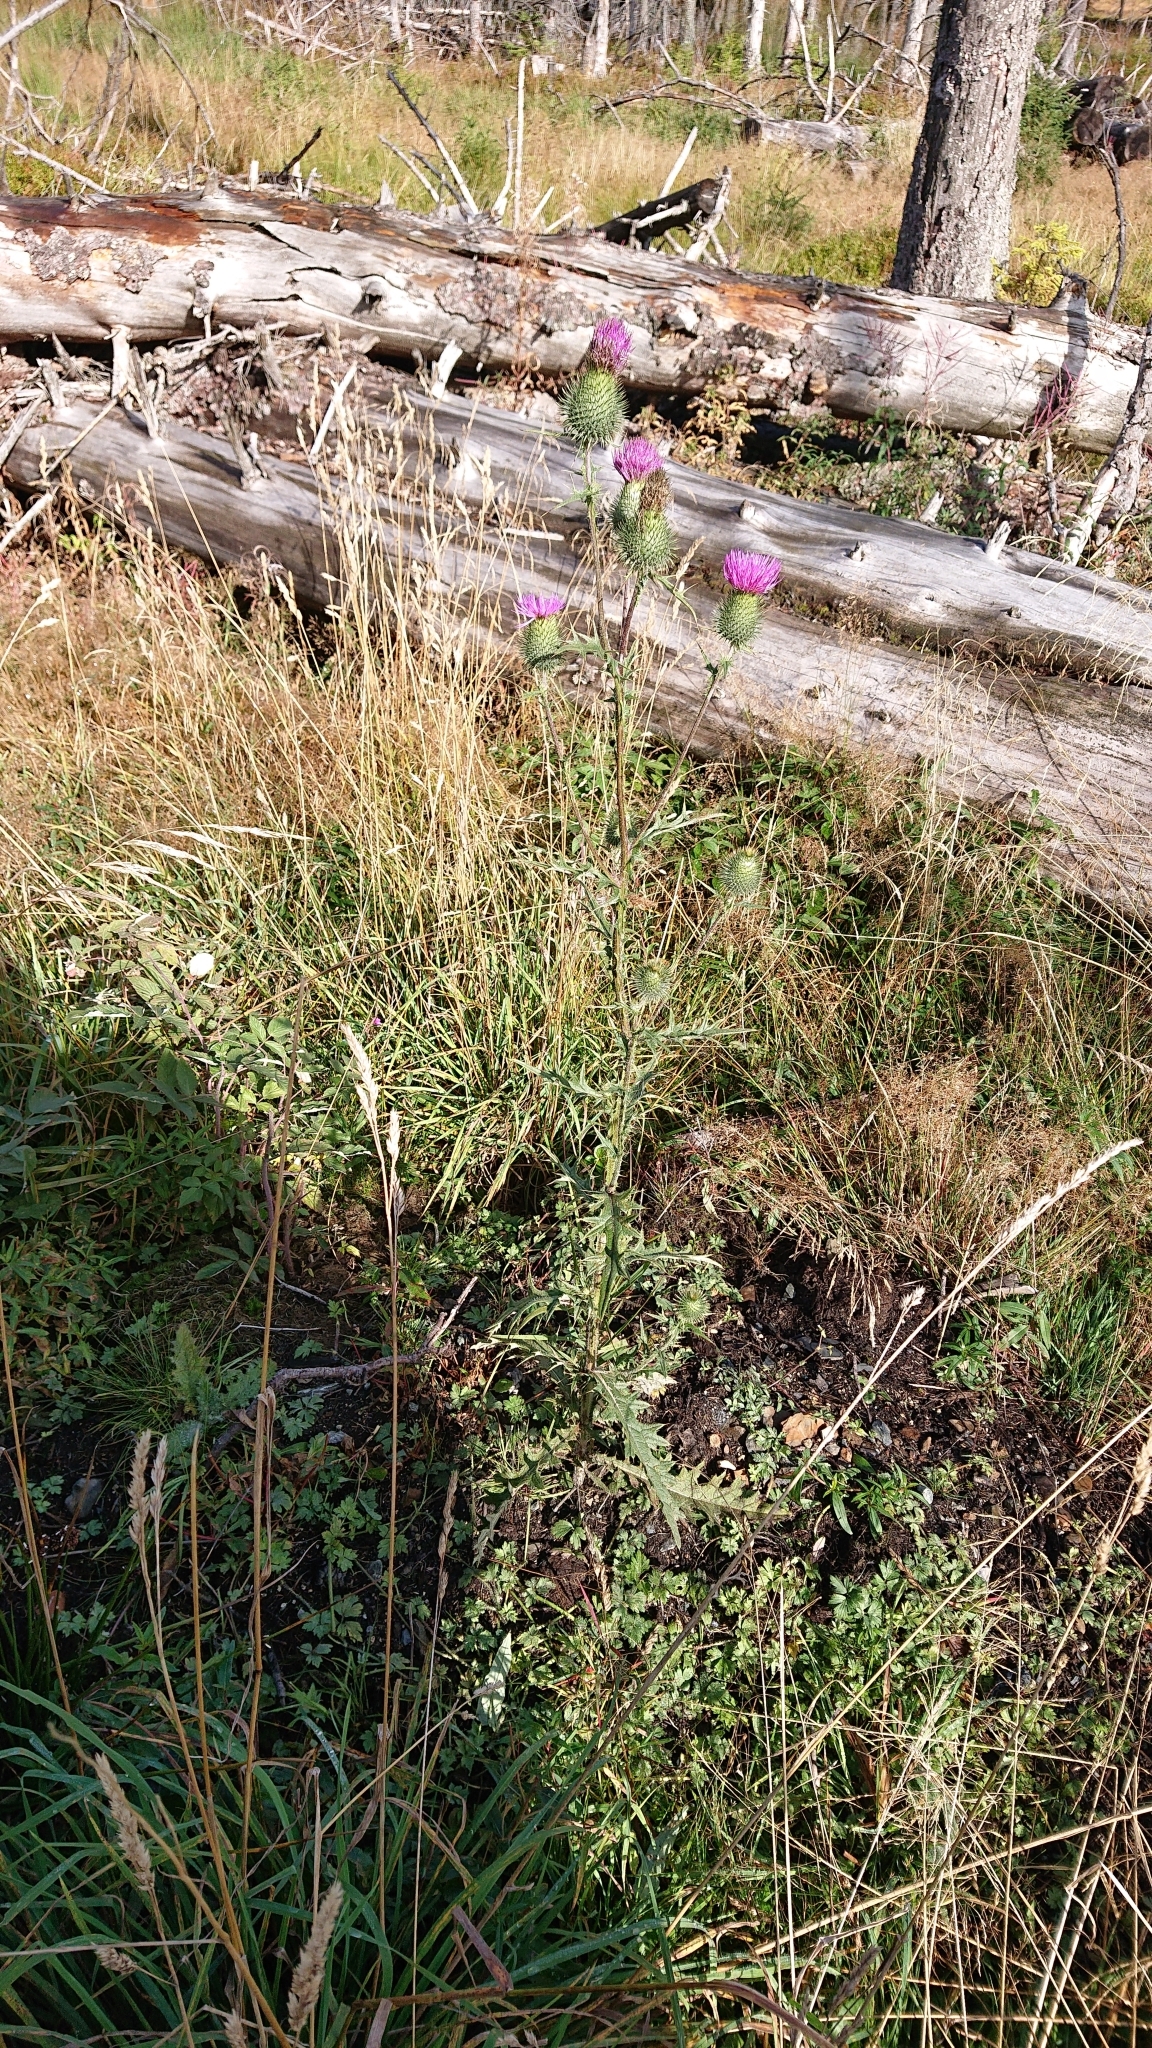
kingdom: Plantae
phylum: Tracheophyta
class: Magnoliopsida
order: Asterales
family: Asteraceae
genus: Cirsium
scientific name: Cirsium vulgare
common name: Bull thistle
